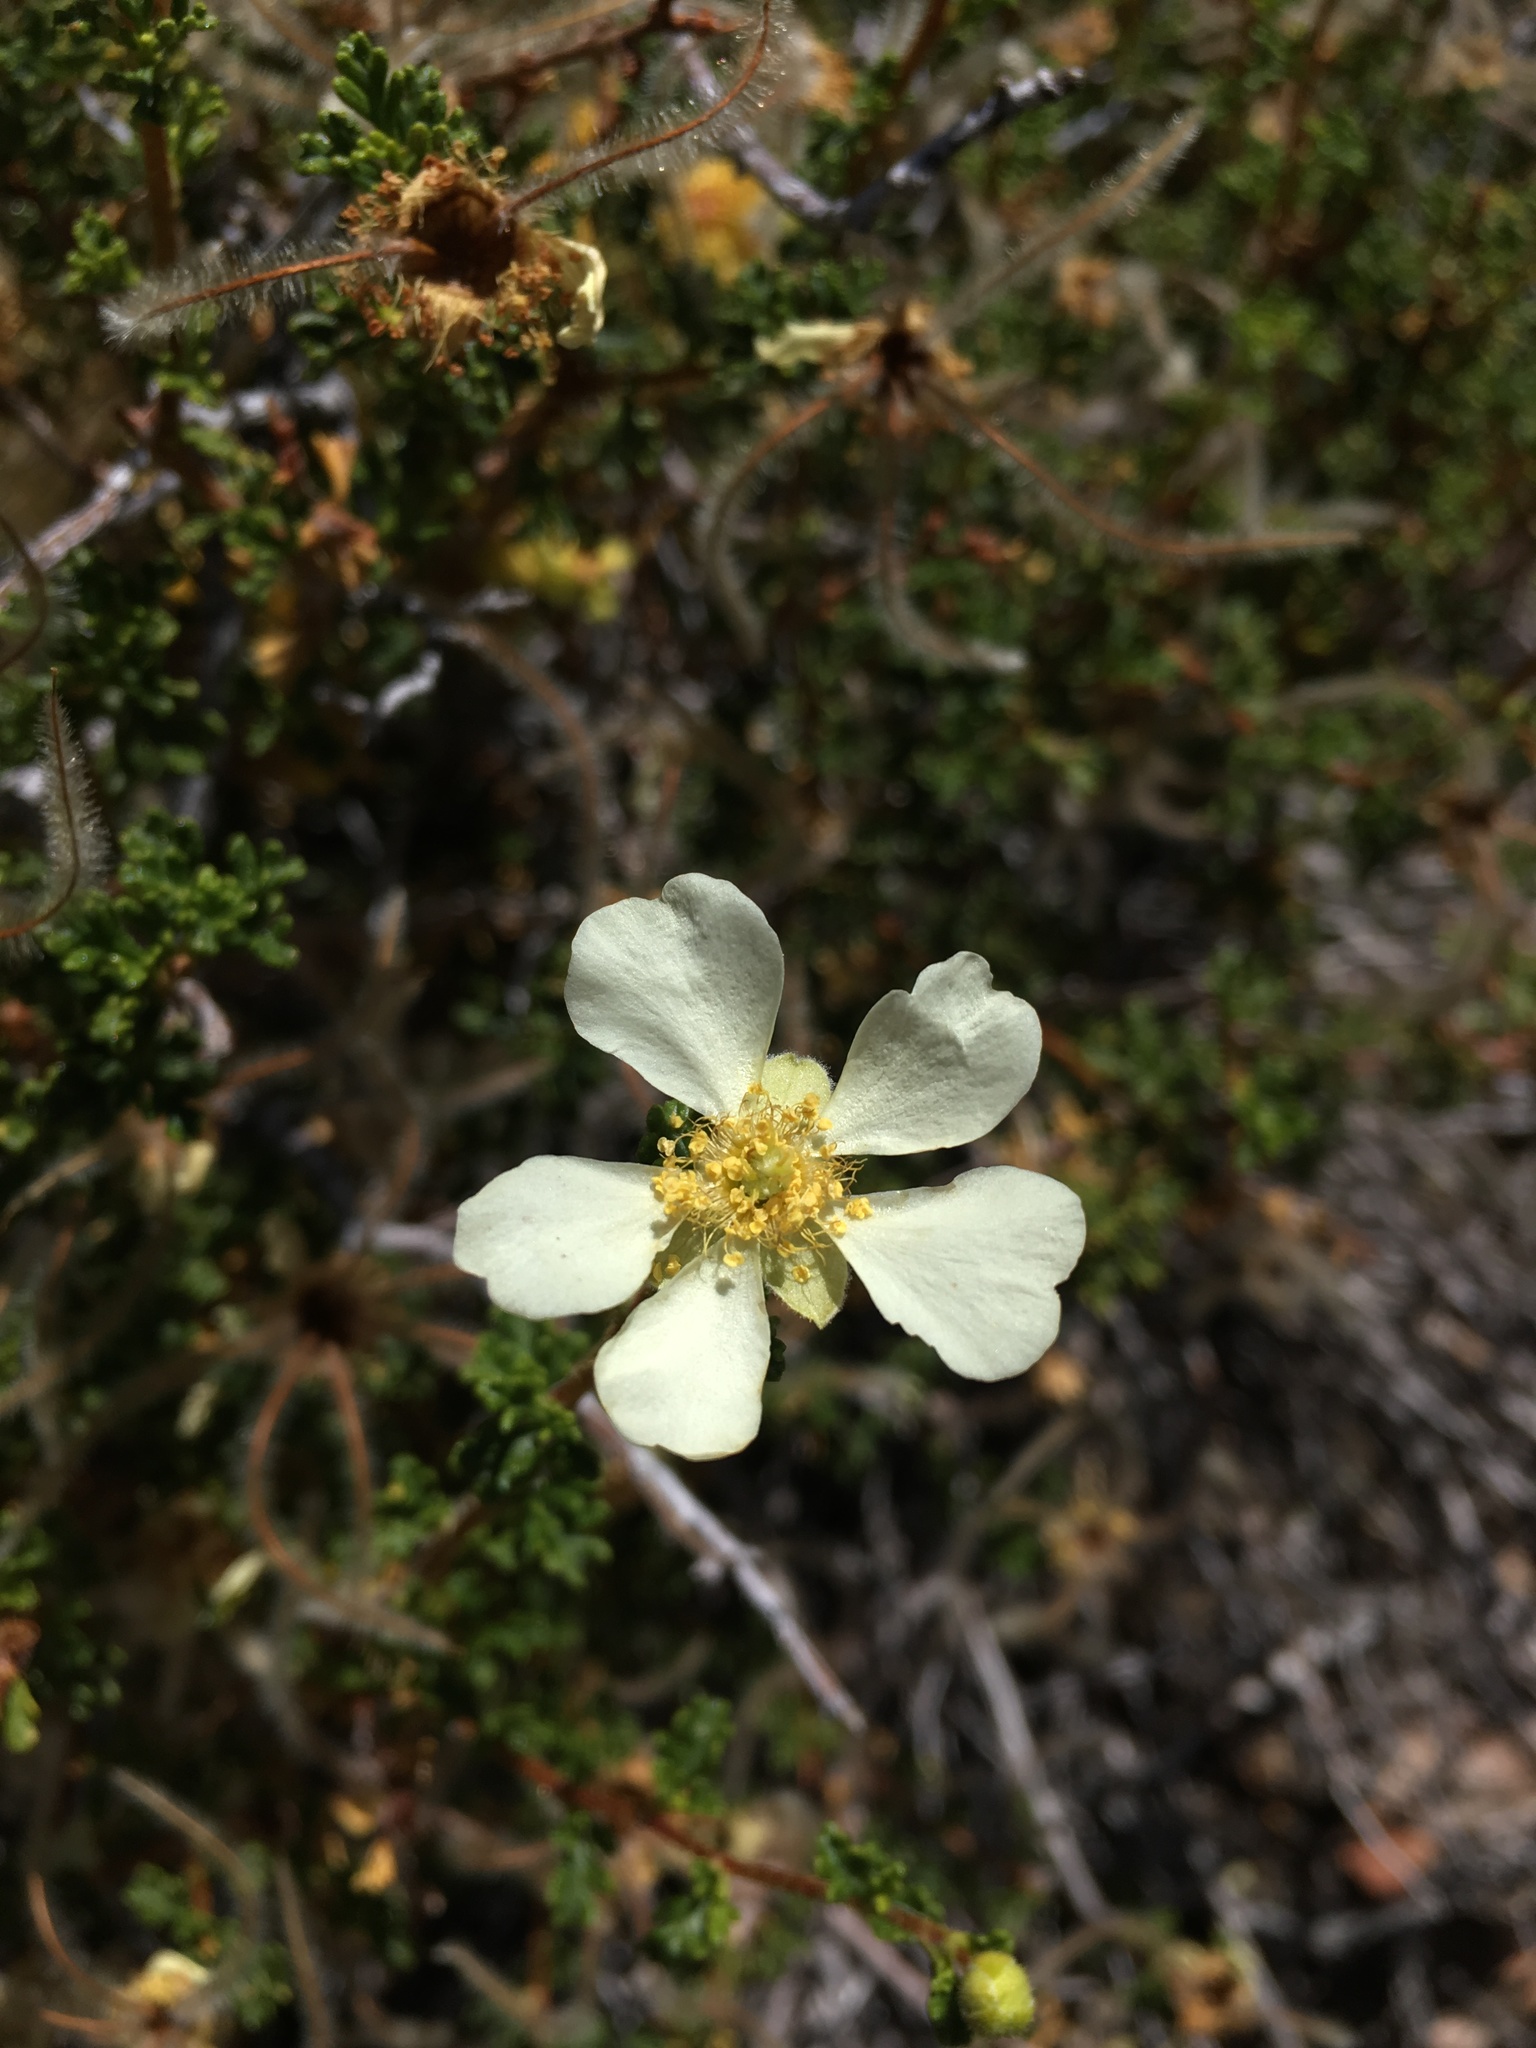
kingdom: Plantae
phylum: Tracheophyta
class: Magnoliopsida
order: Rosales
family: Rosaceae
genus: Purshia
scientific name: Purshia stansburiana
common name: Stansbury's cliffrose
